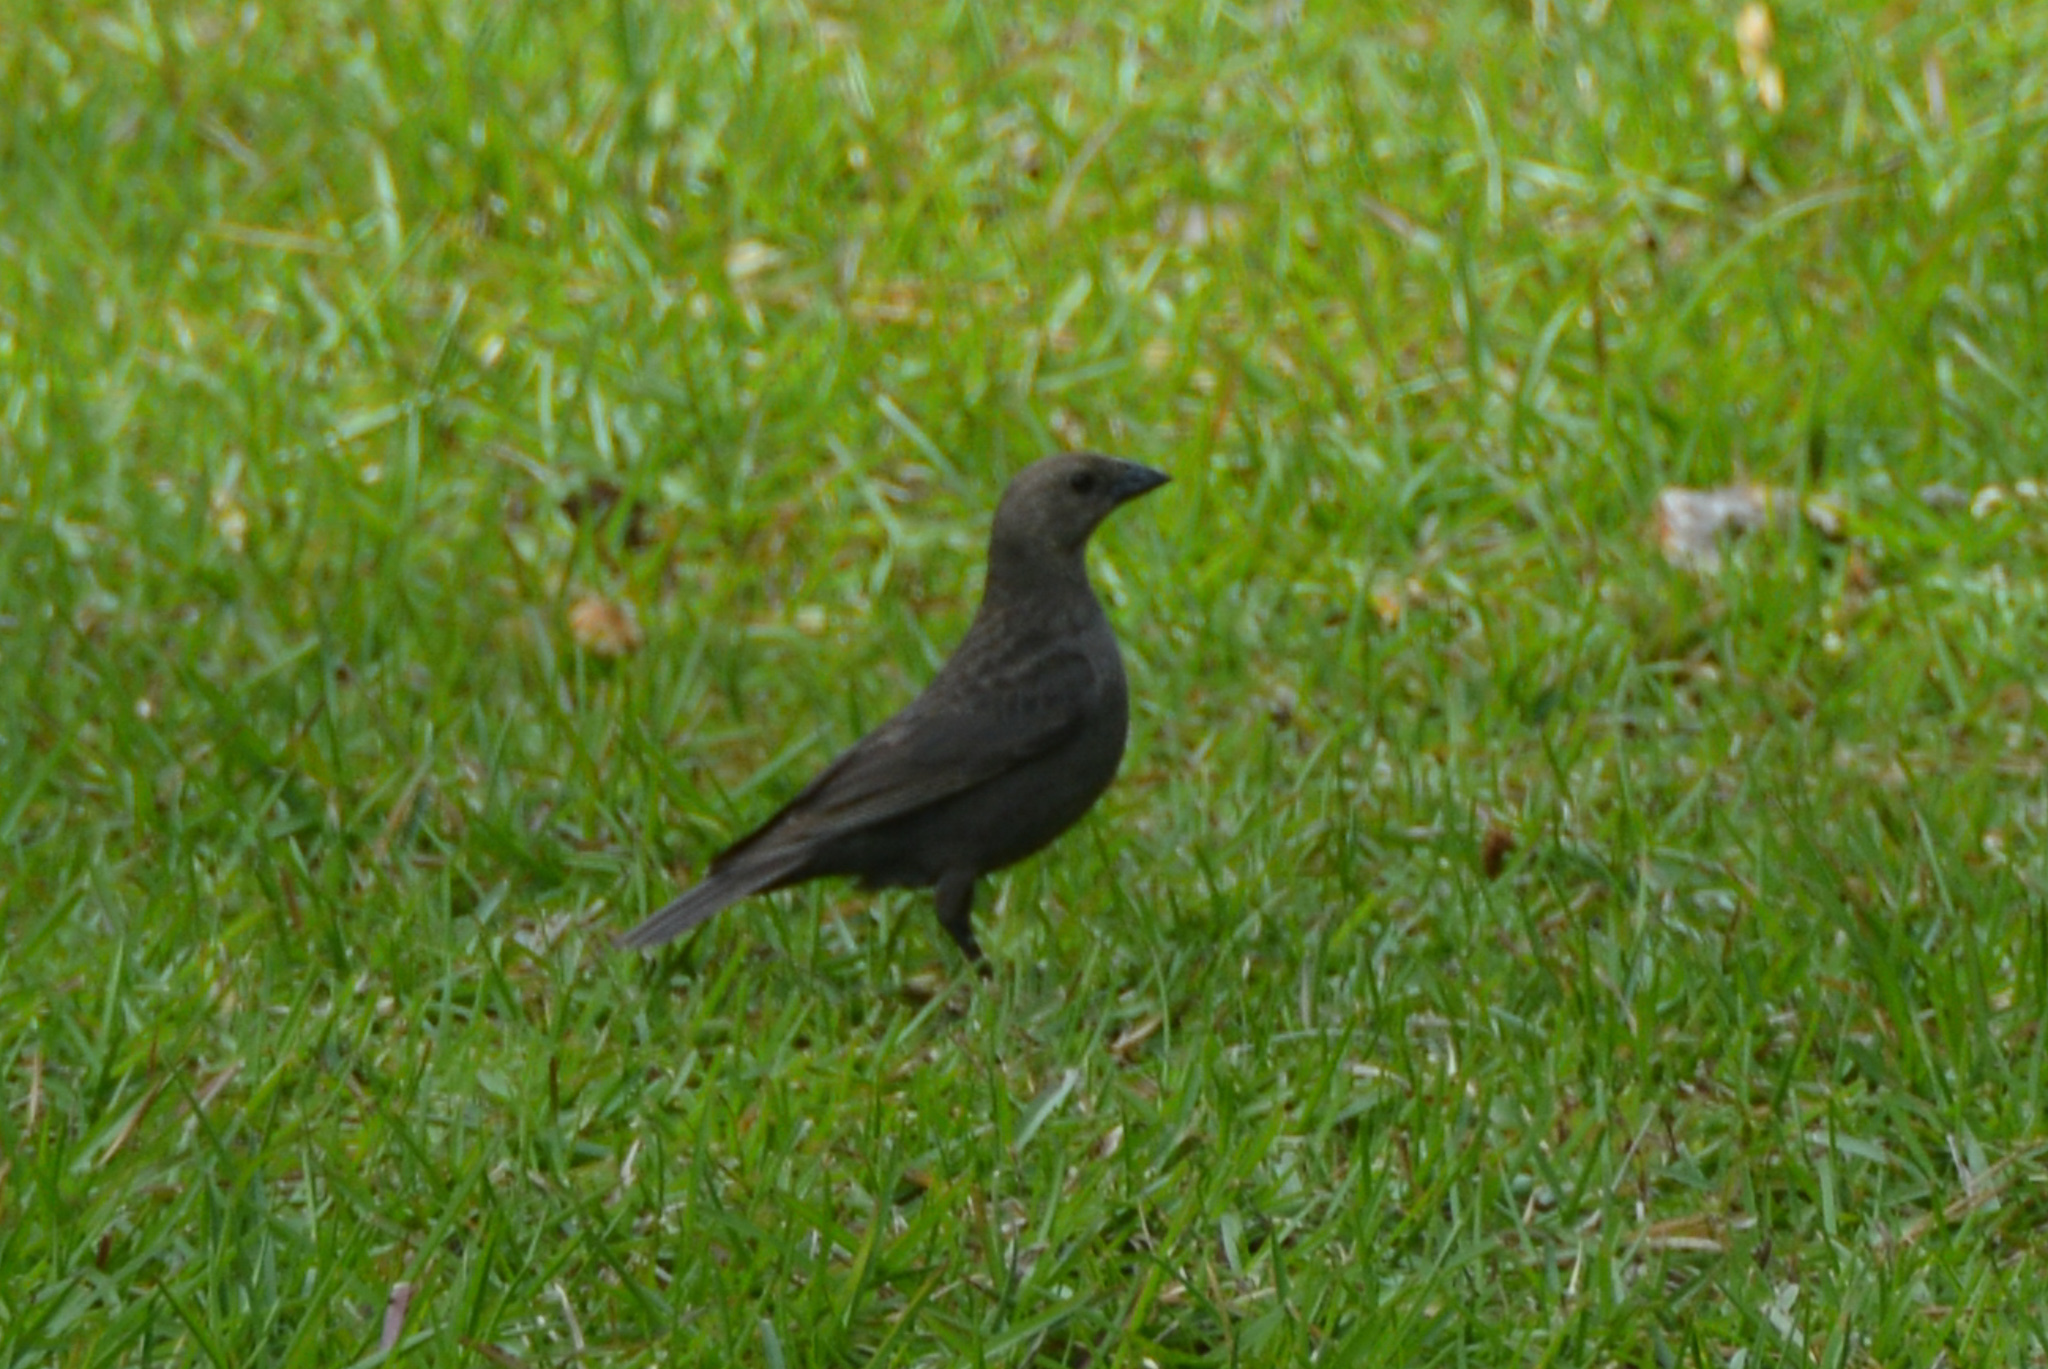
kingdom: Animalia
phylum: Chordata
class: Aves
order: Passeriformes
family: Icteridae
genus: Molothrus
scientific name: Molothrus ater
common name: Brown-headed cowbird
